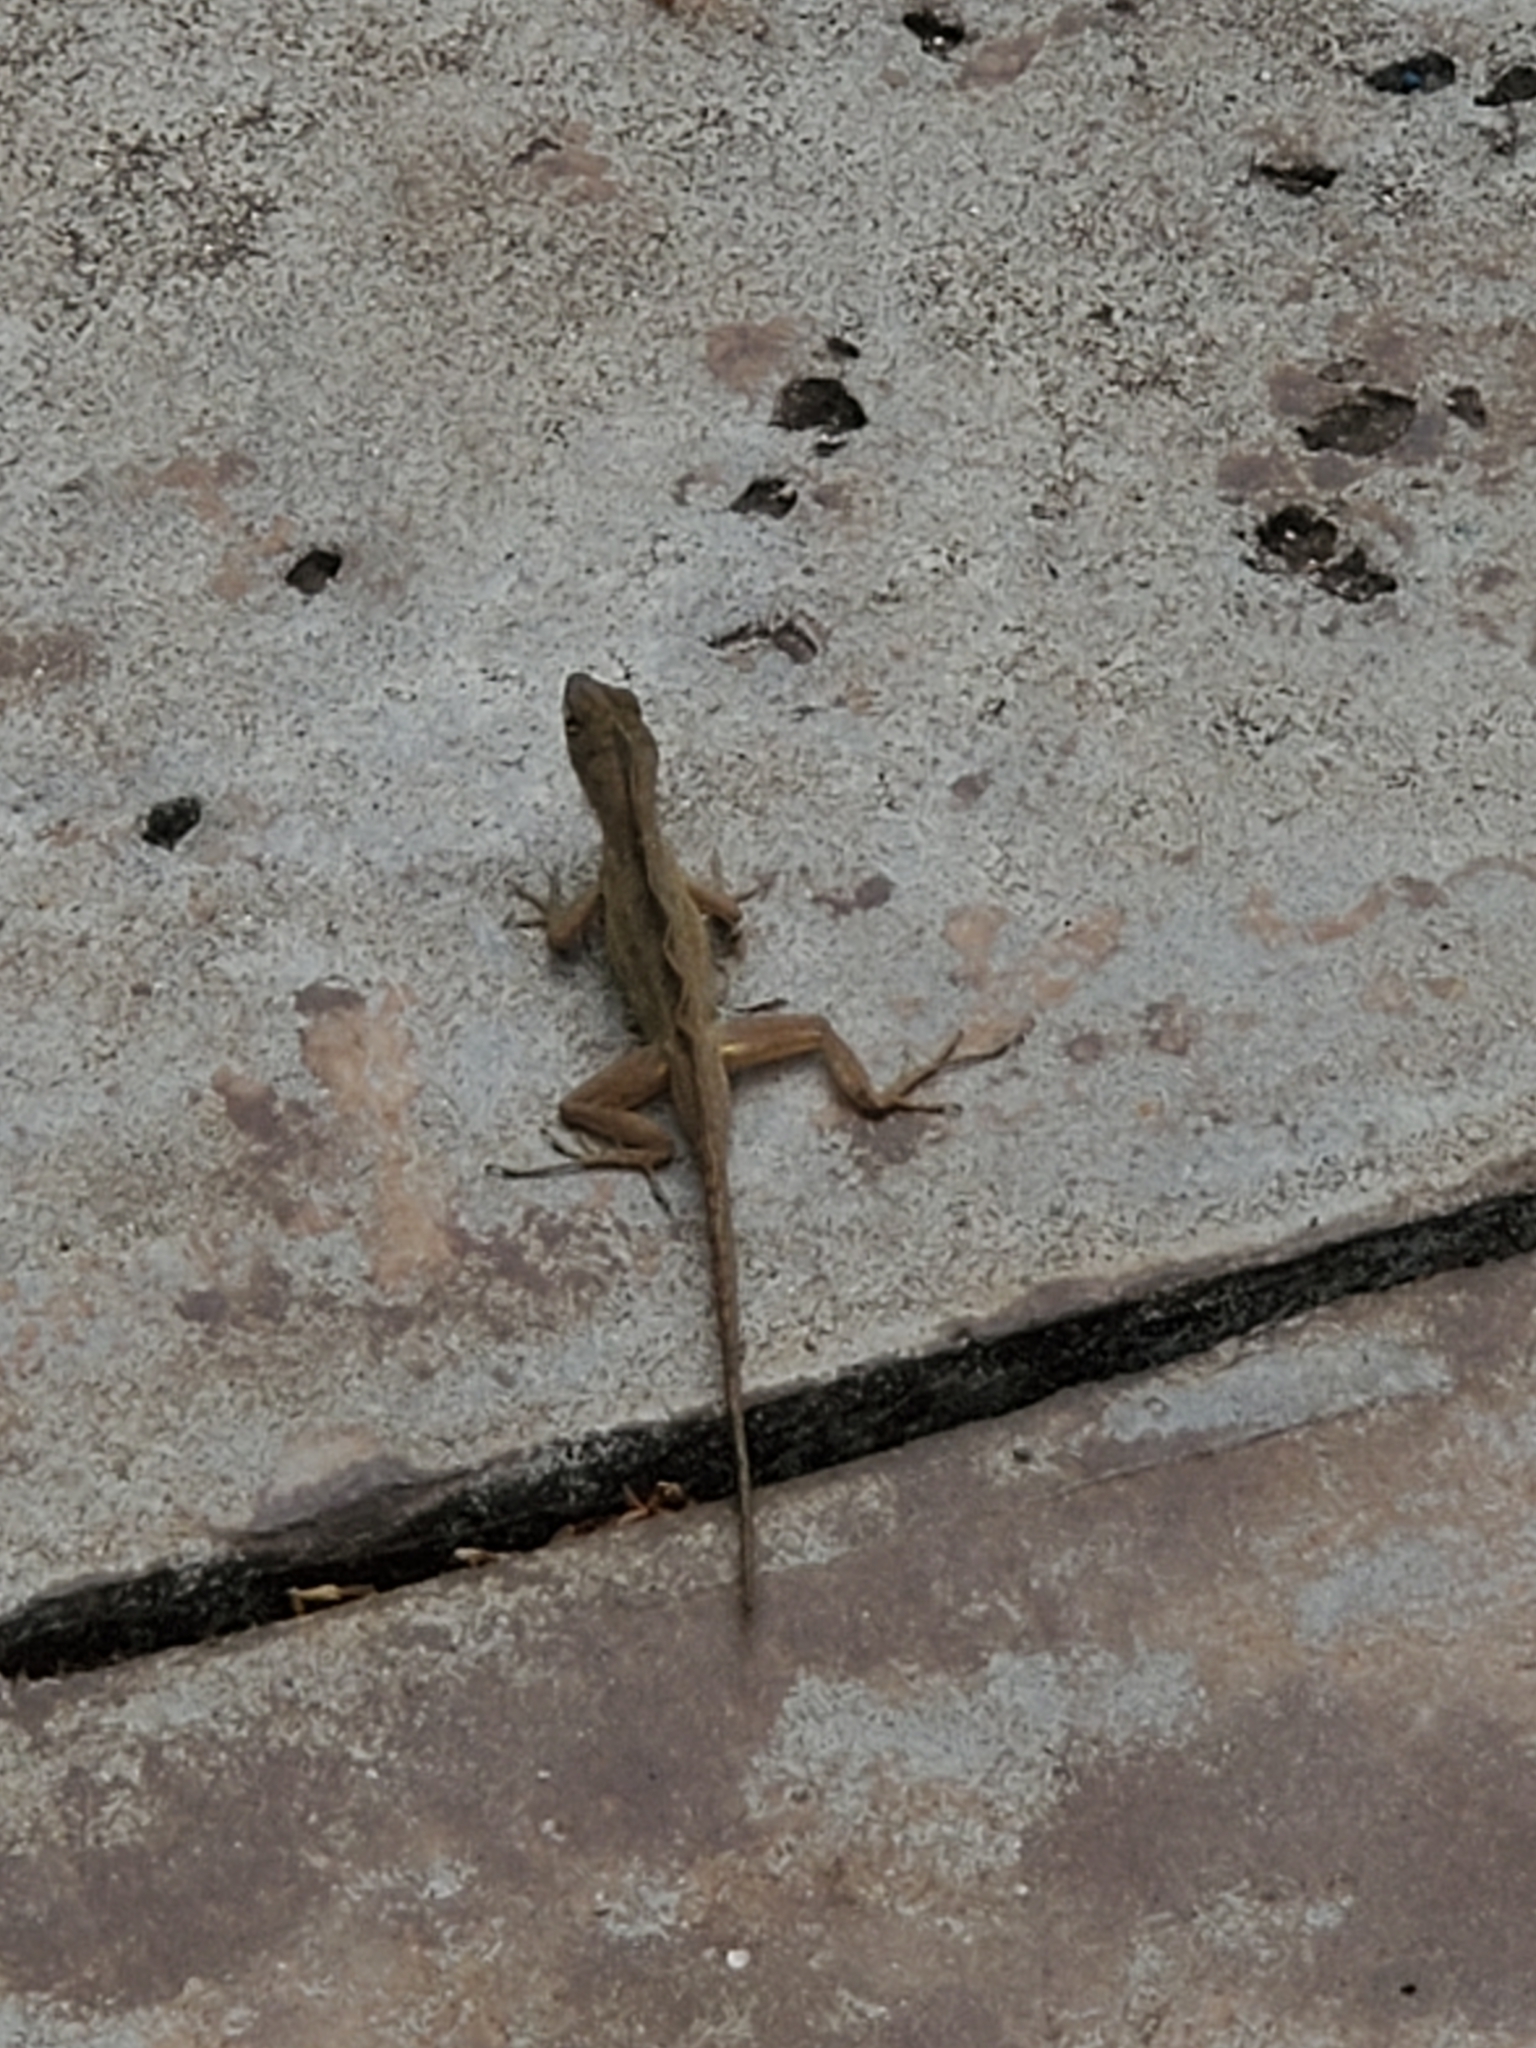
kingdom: Animalia
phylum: Chordata
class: Squamata
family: Dactyloidae
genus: Anolis
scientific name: Anolis sagrei
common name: Brown anole
